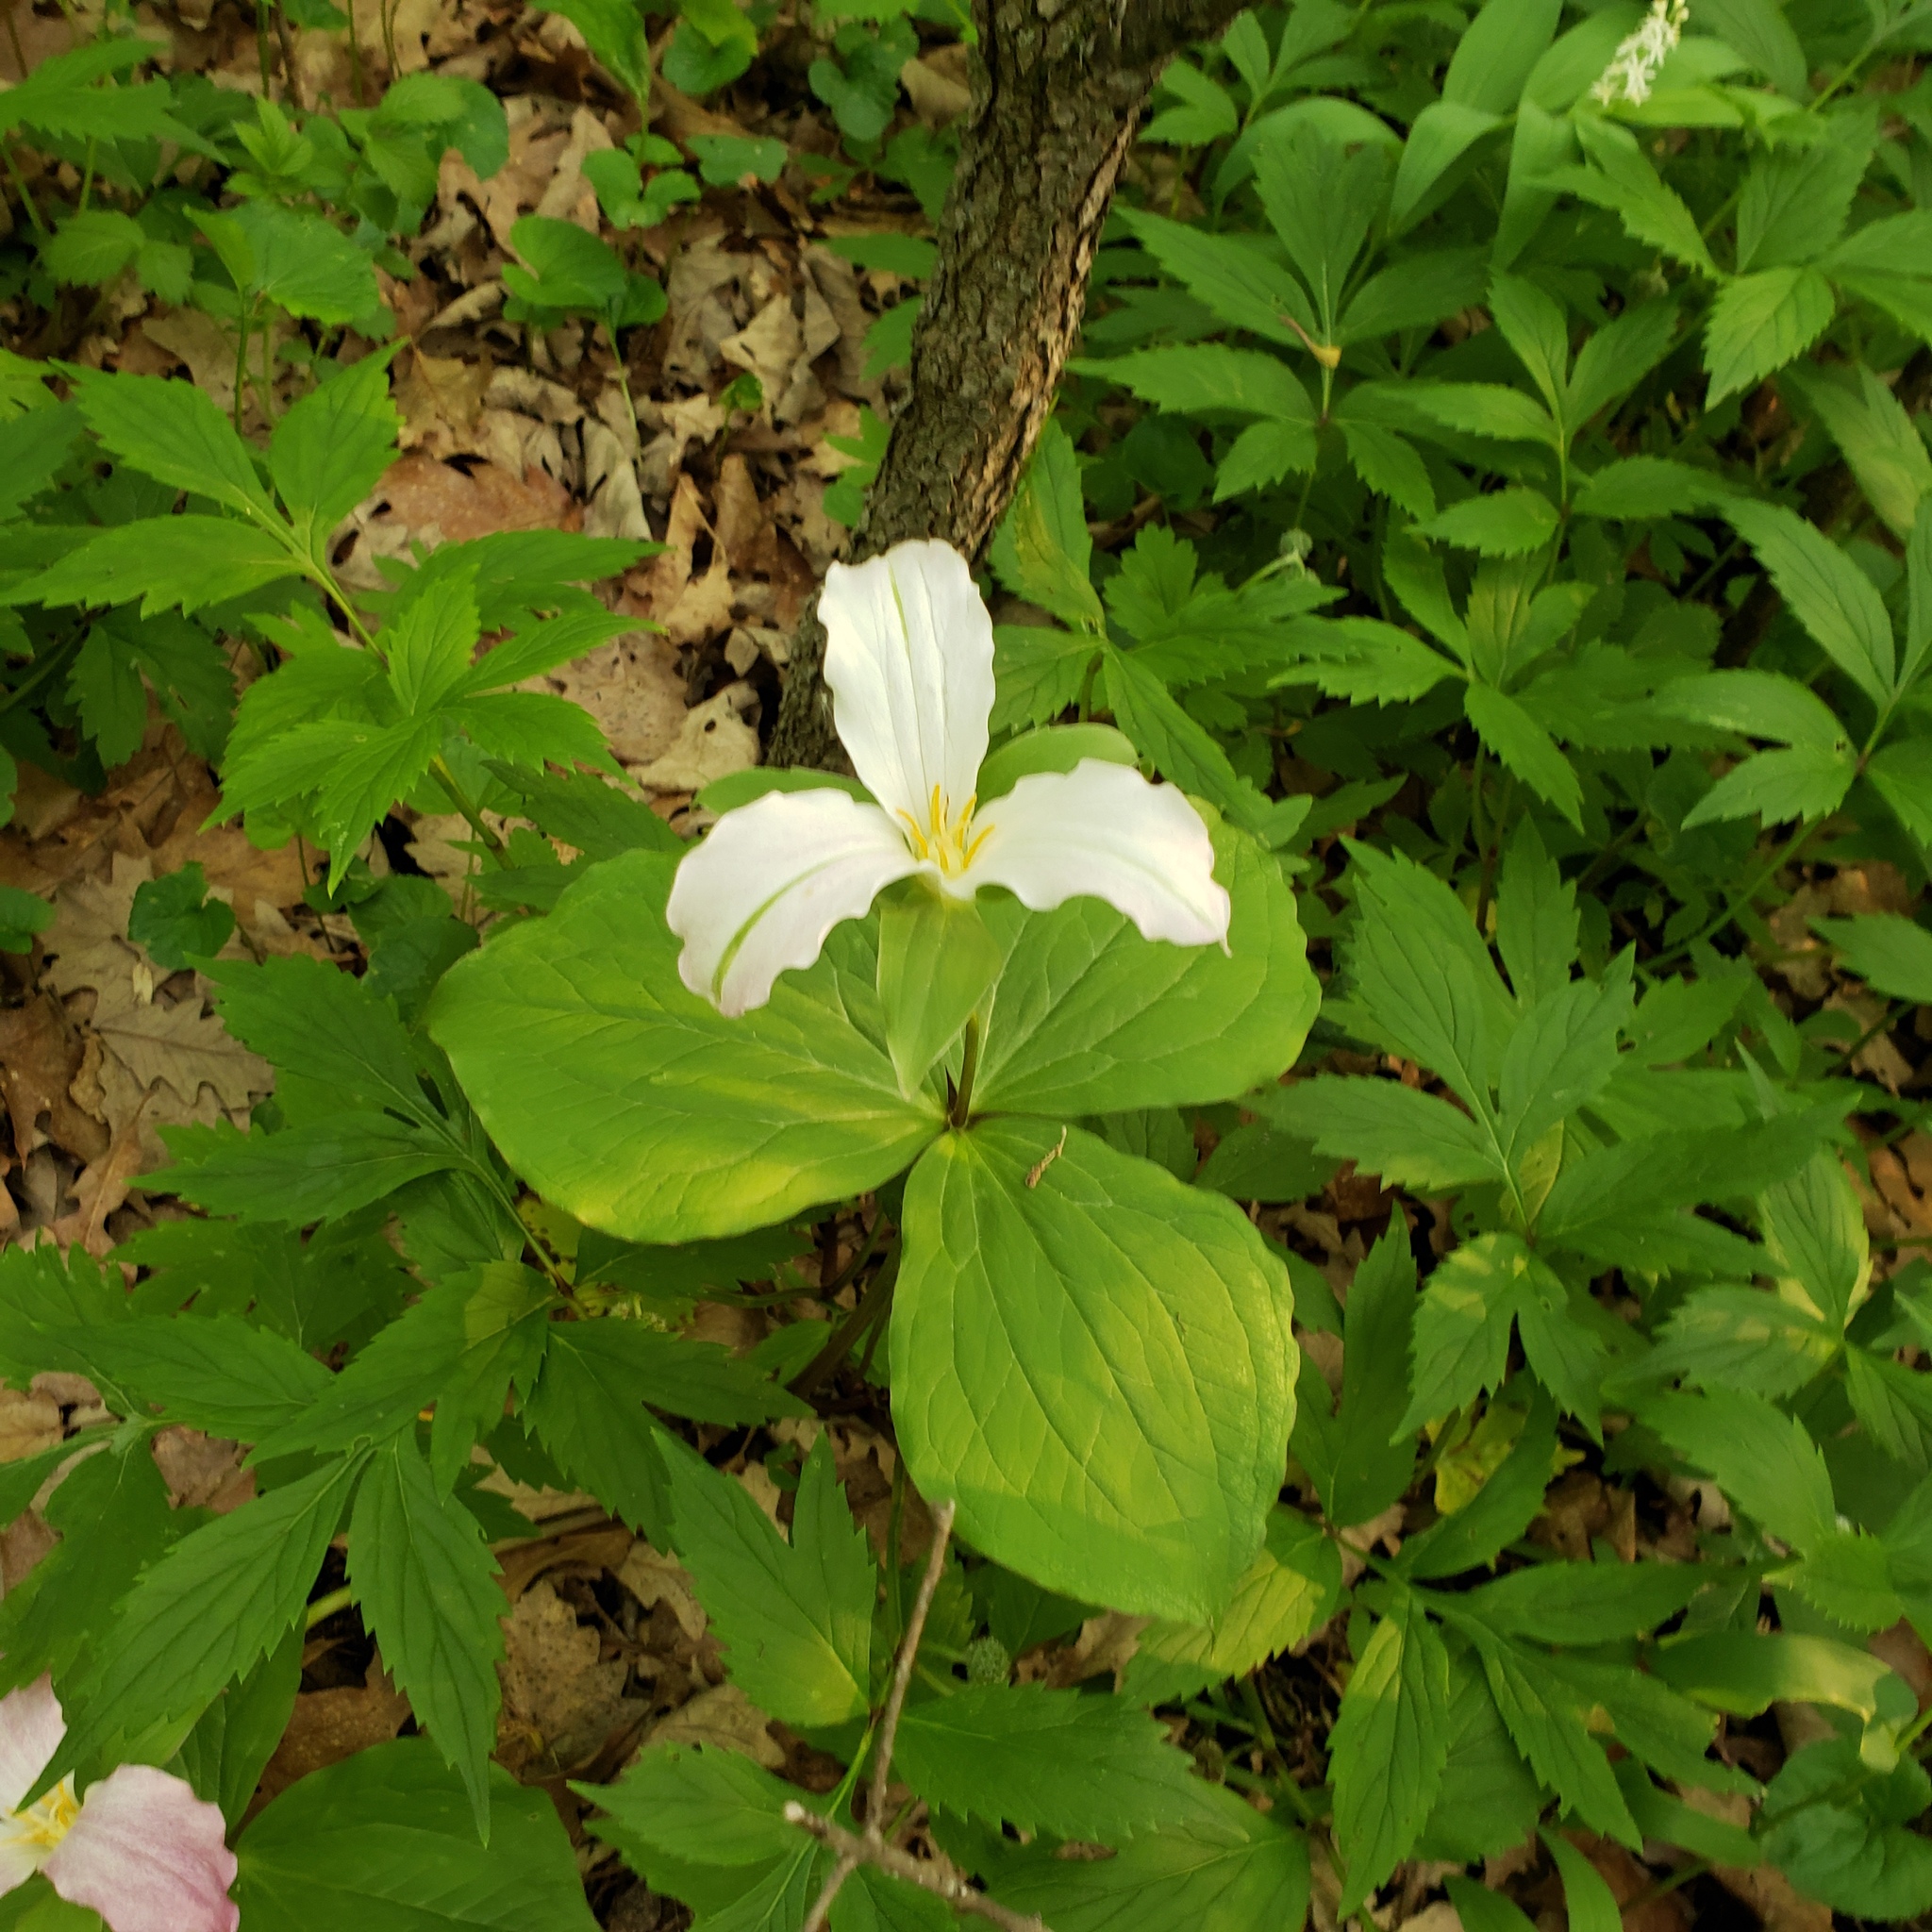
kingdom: Plantae
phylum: Tracheophyta
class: Liliopsida
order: Liliales
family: Melanthiaceae
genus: Trillium
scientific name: Trillium grandiflorum
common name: Great white trillium
